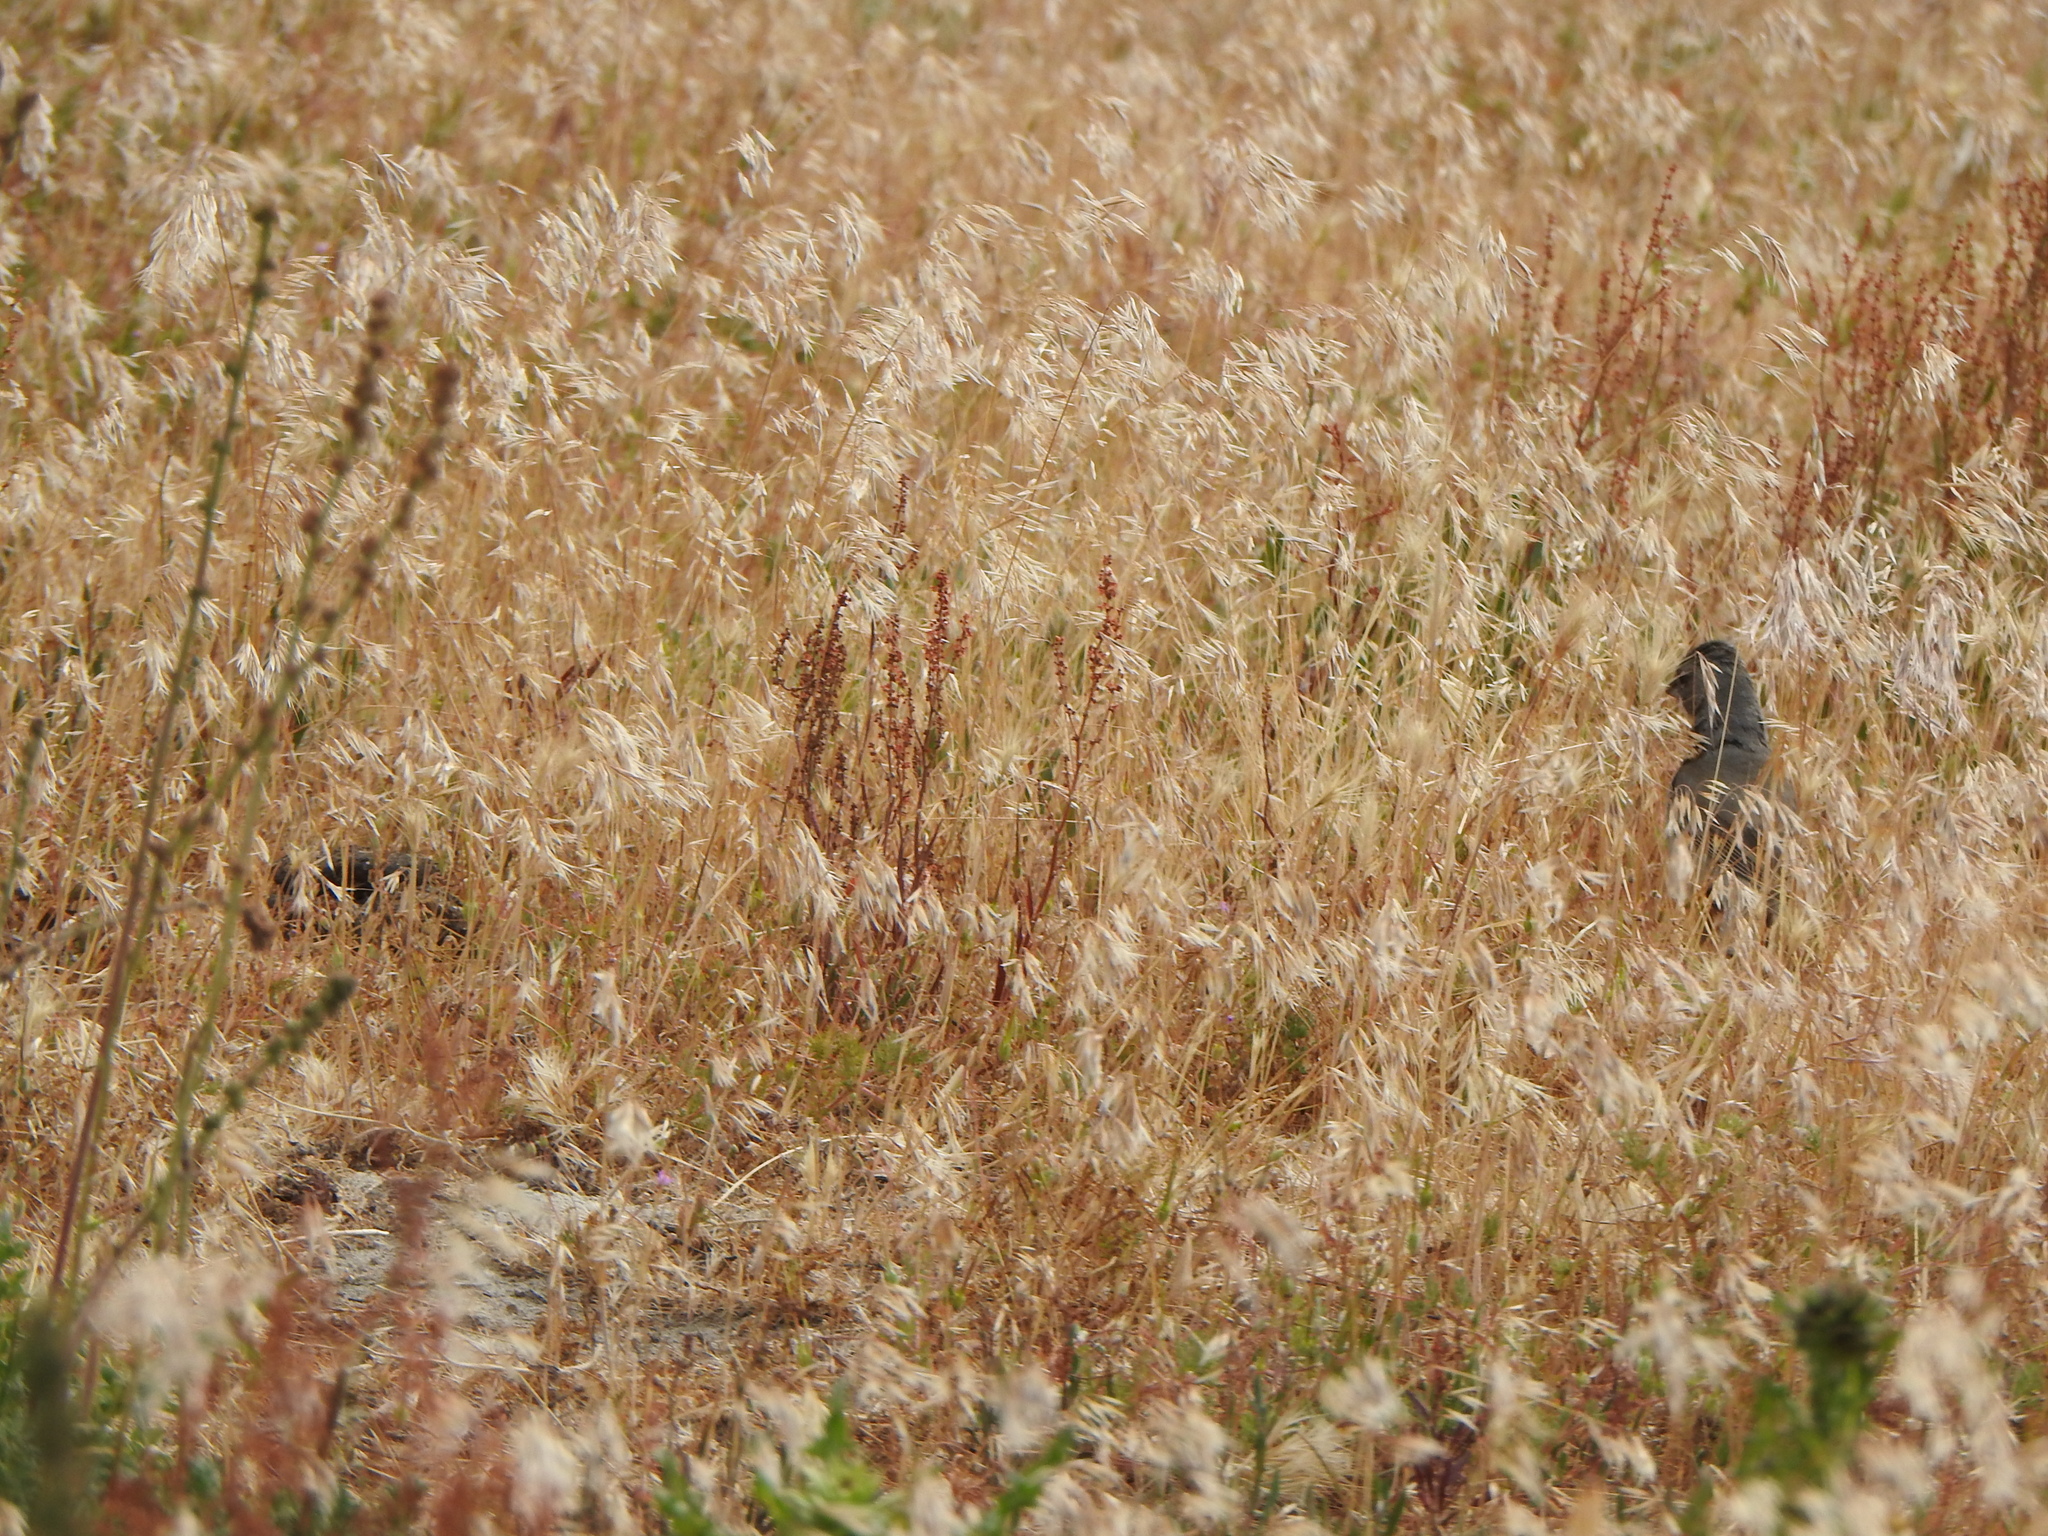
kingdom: Animalia
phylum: Chordata
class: Aves
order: Passeriformes
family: Thraupidae
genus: Diuca
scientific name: Diuca diuca
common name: Common diuca finch
